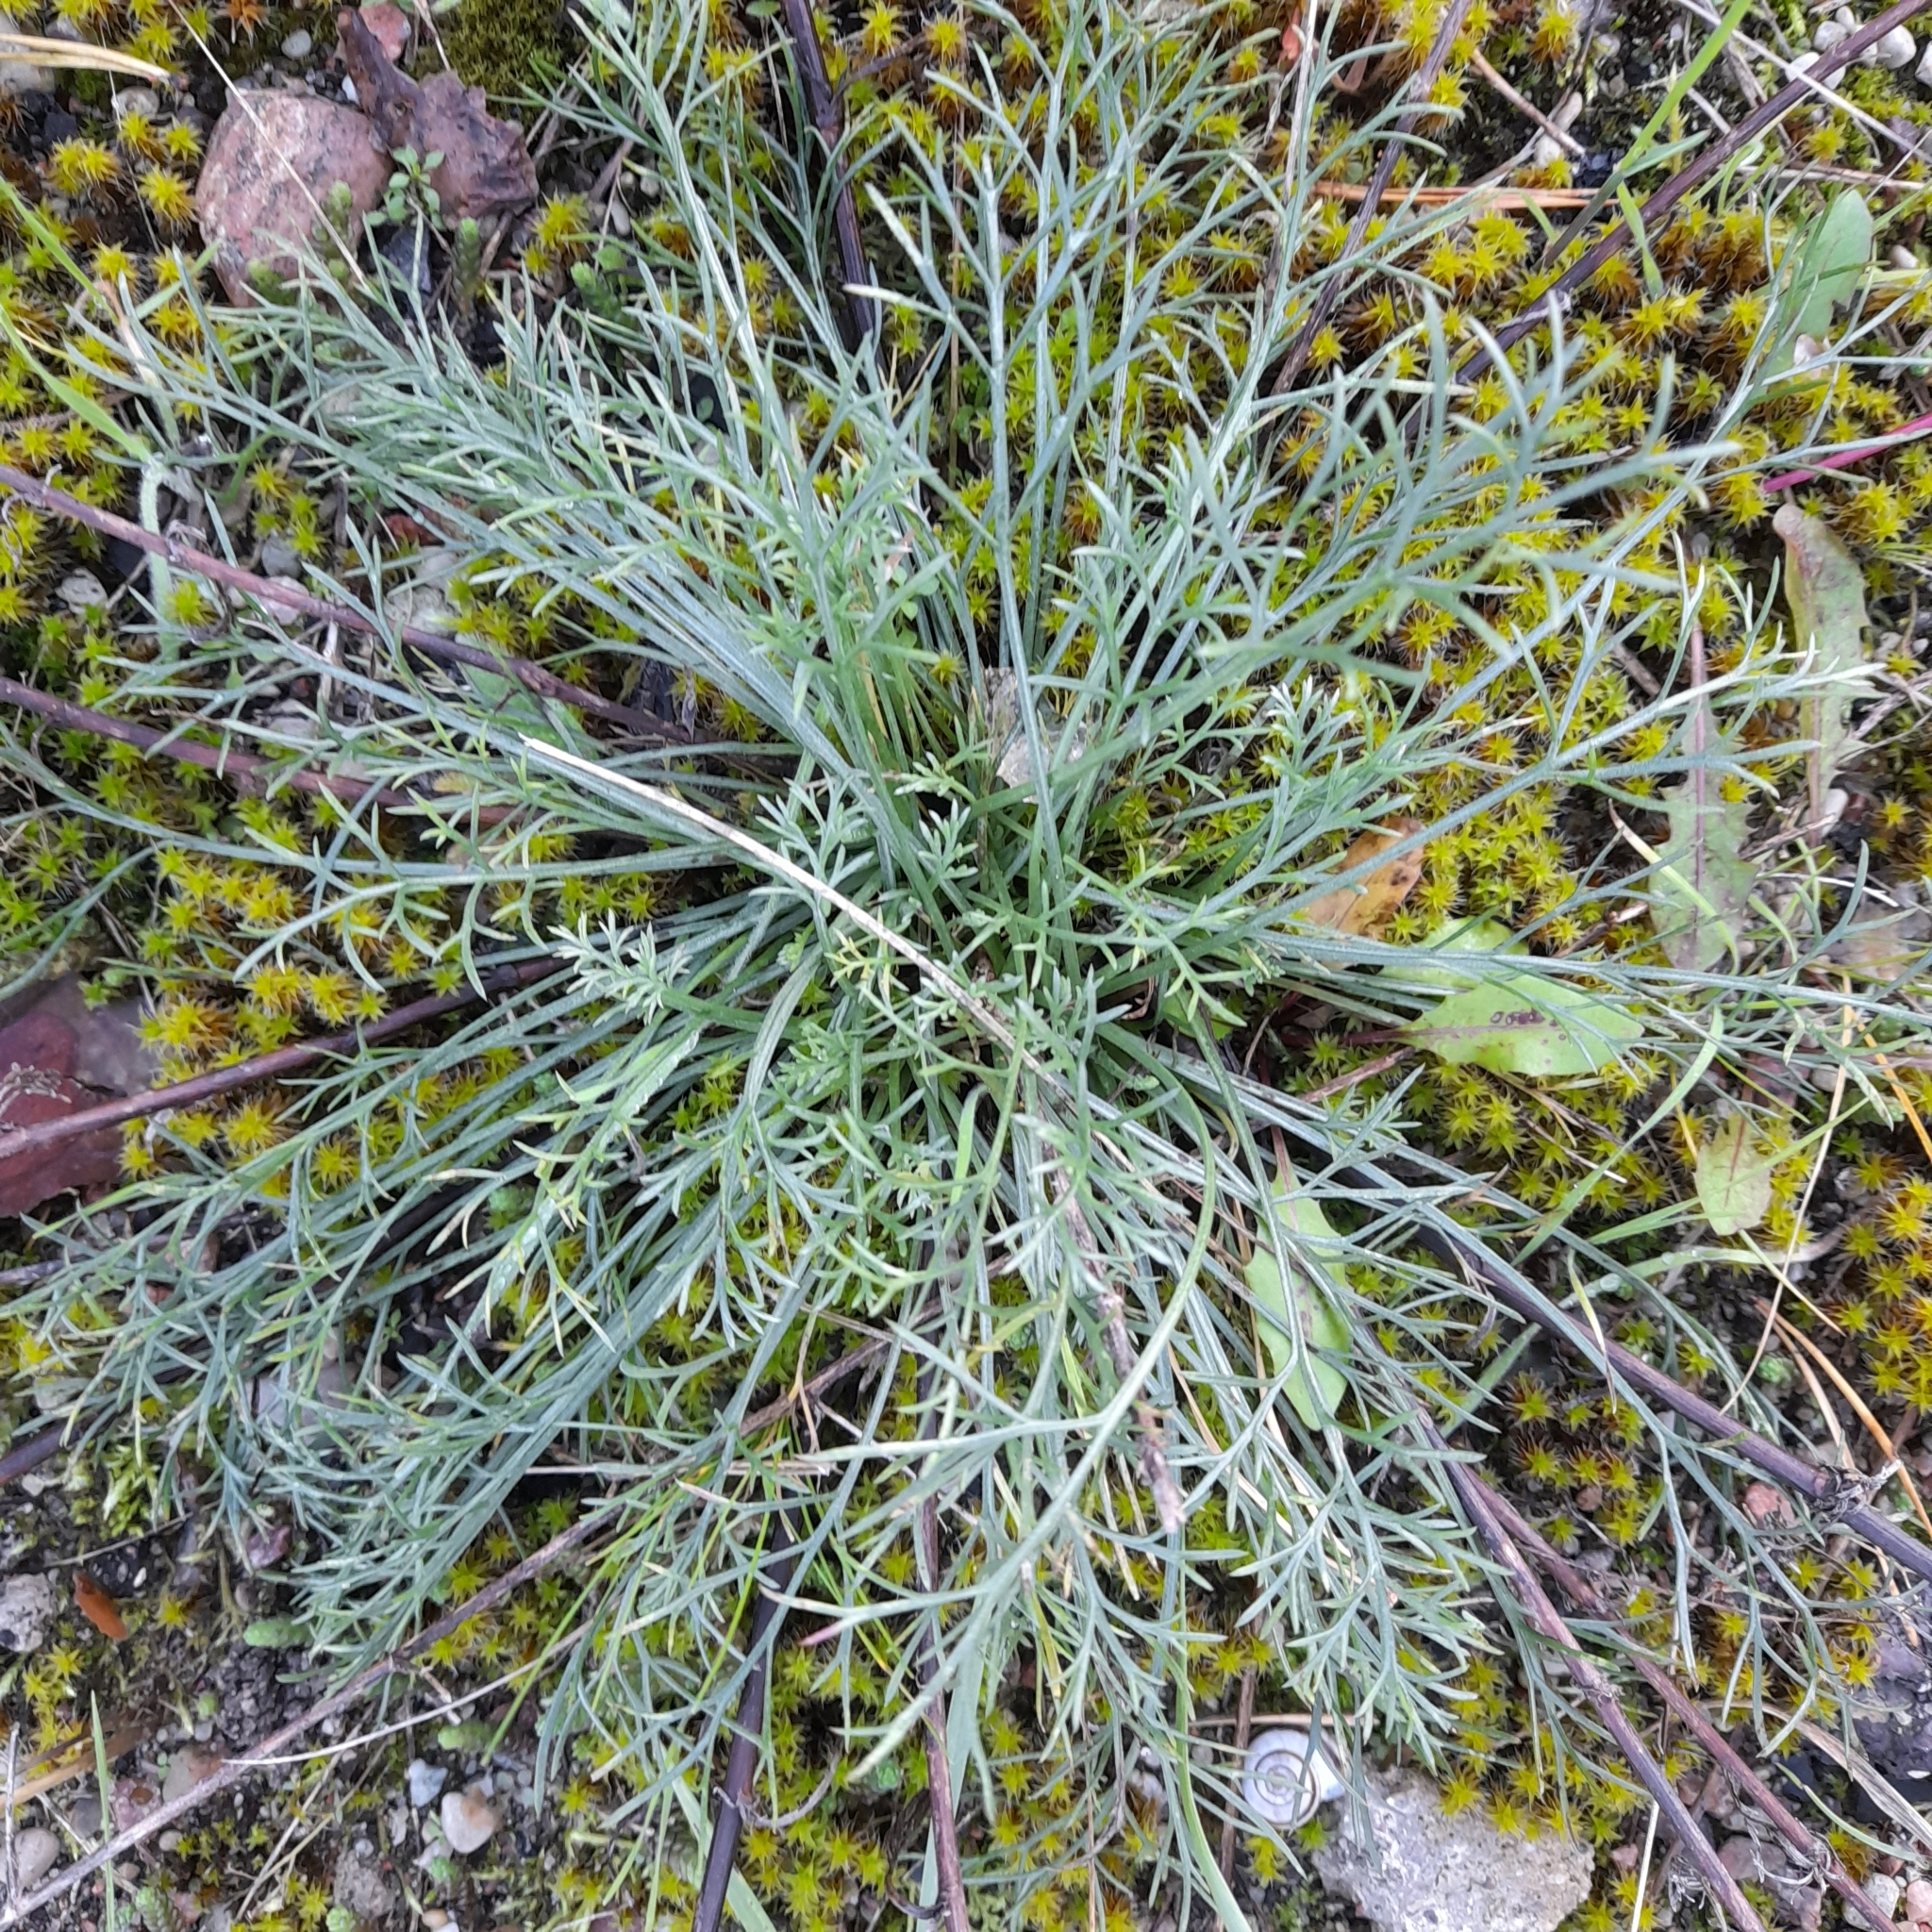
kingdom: Plantae
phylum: Tracheophyta
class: Magnoliopsida
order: Asterales
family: Asteraceae
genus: Artemisia
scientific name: Artemisia campestris
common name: Field wormwood
